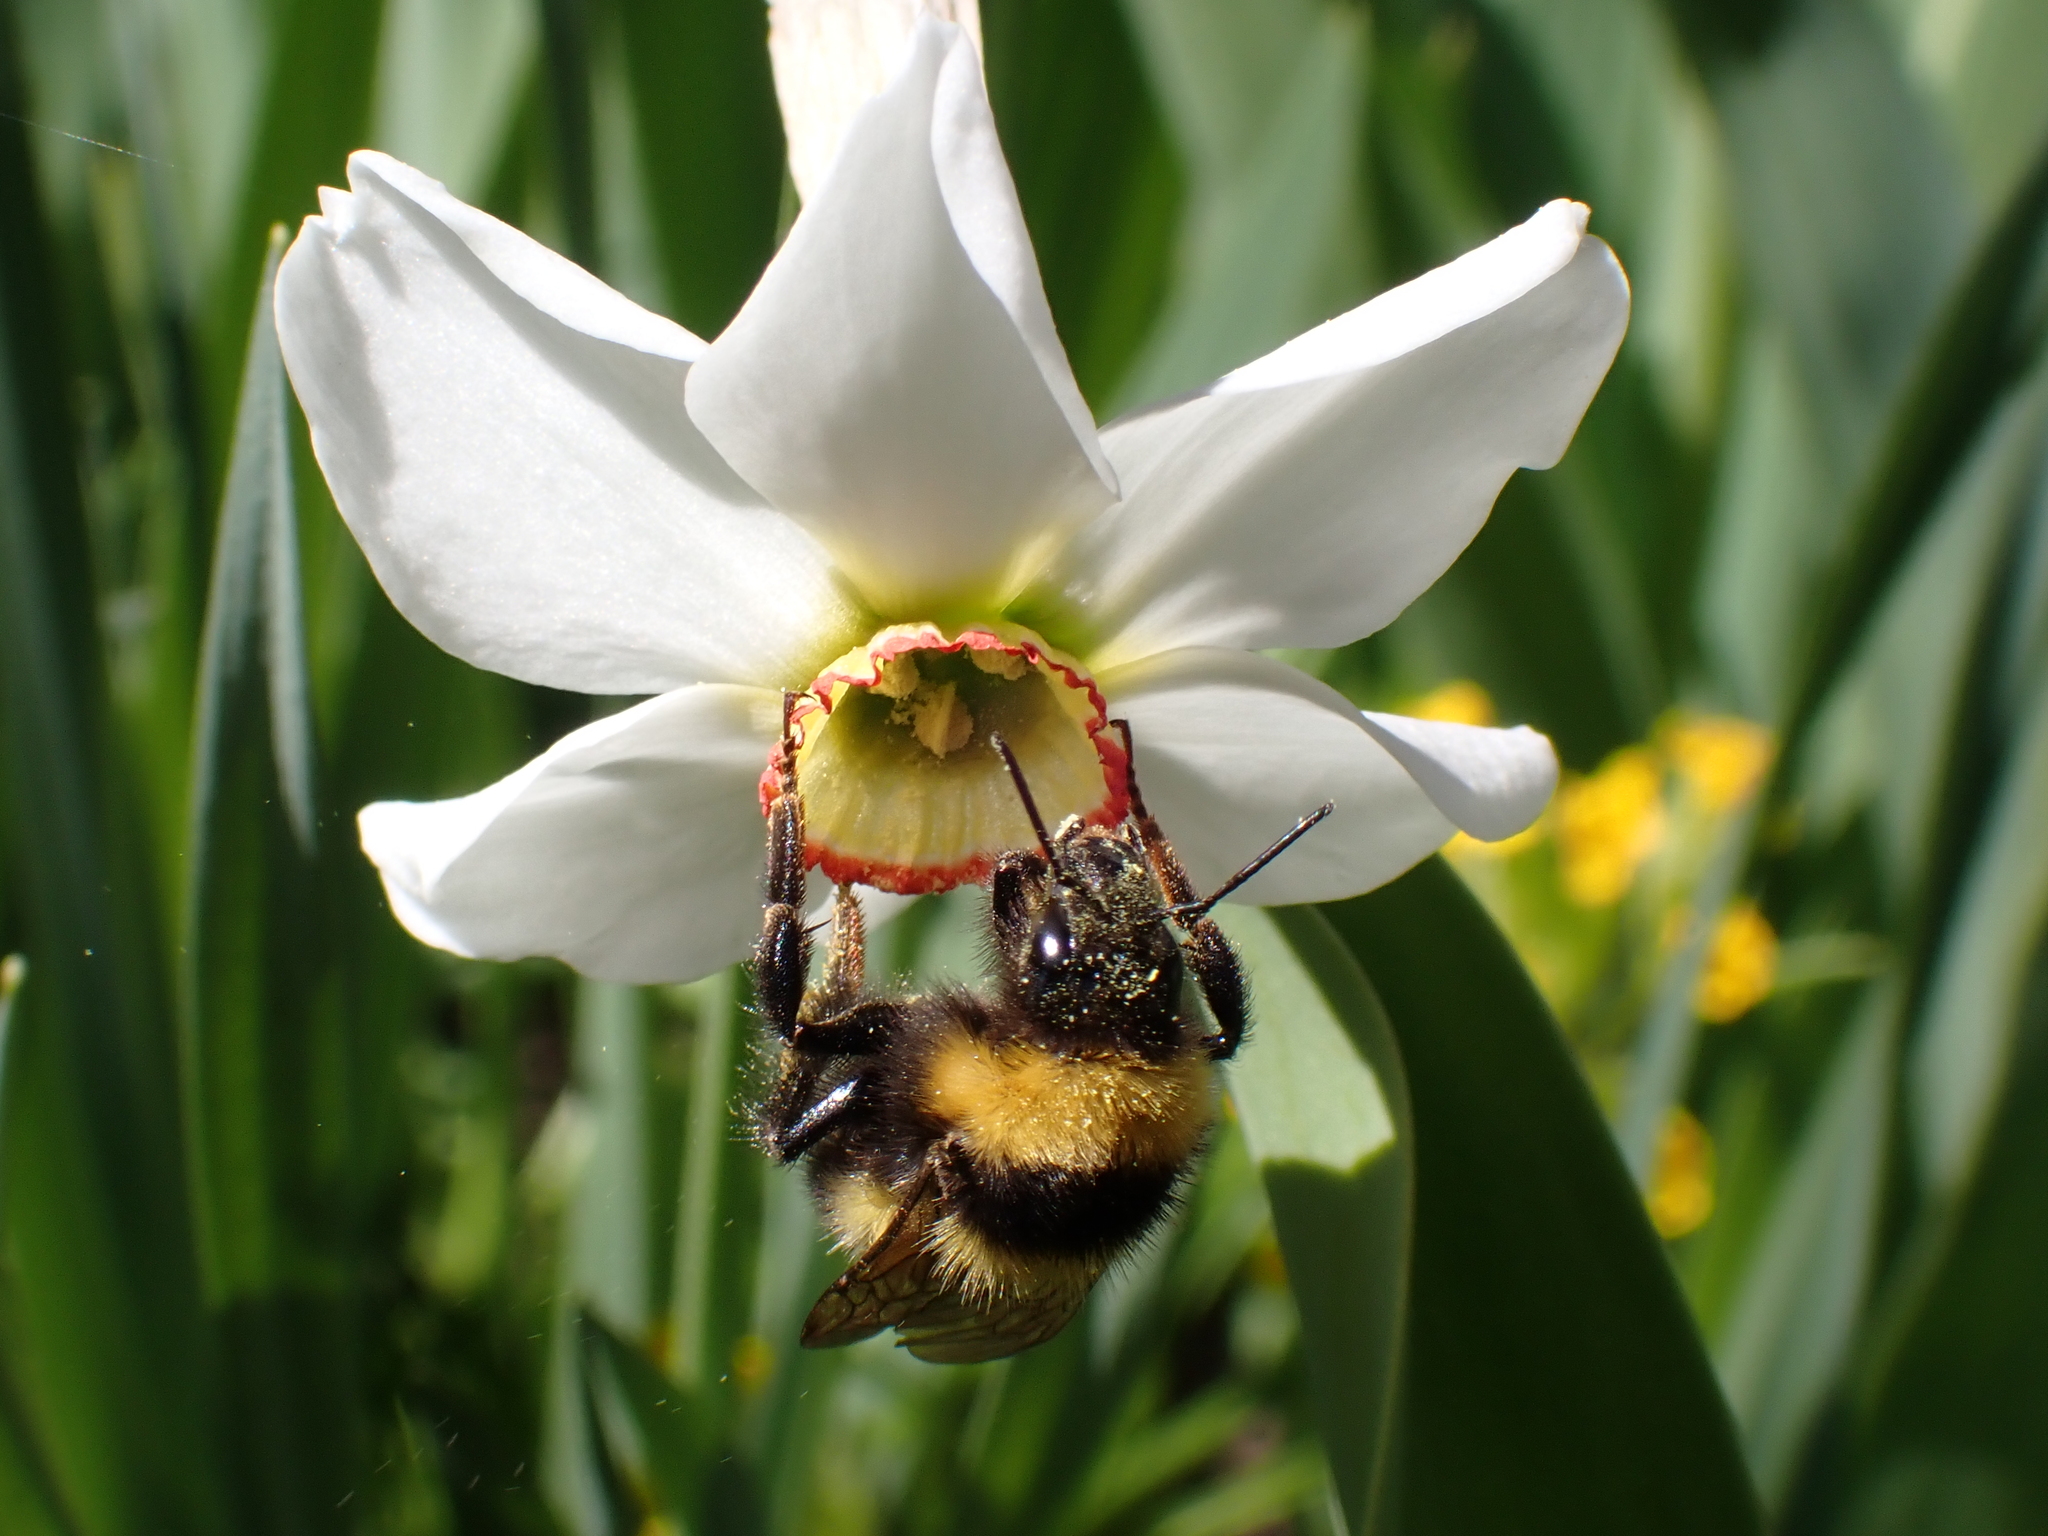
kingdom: Animalia
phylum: Arthropoda
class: Insecta
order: Hymenoptera
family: Apidae
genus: Bombus
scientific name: Bombus hortorum
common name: Garden bumblebee
